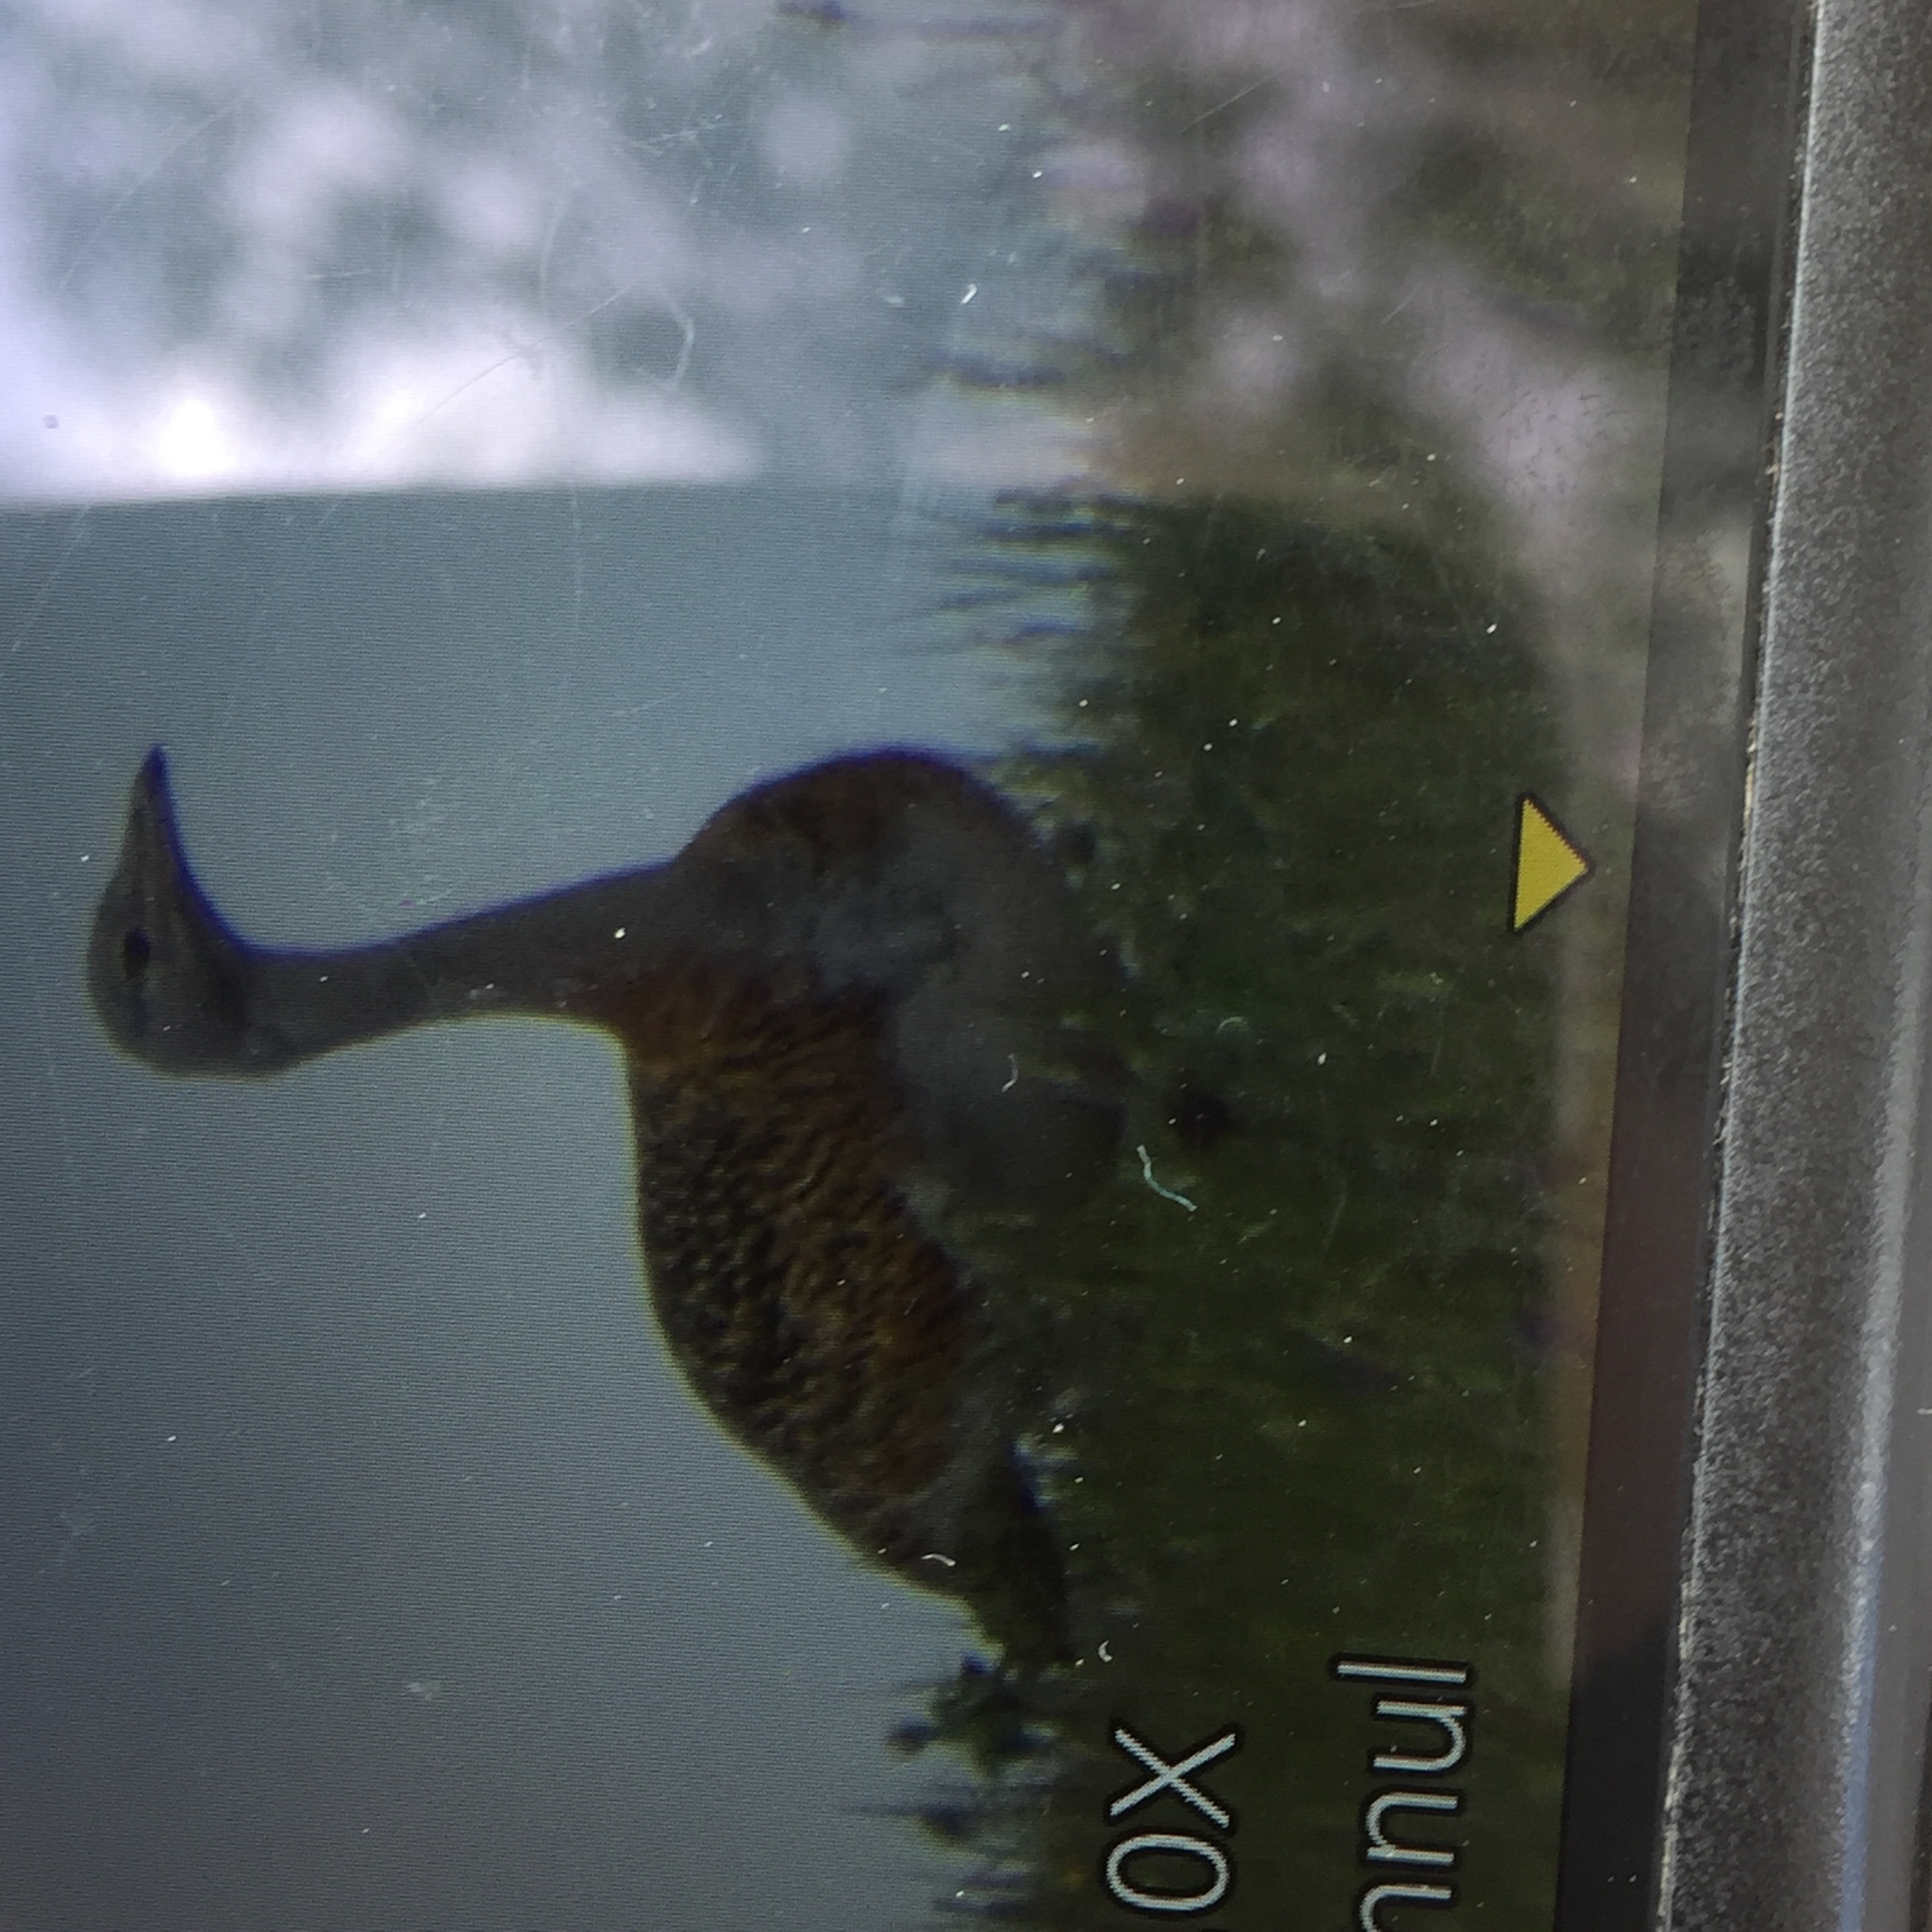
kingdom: Animalia
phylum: Chordata
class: Aves
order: Otidiformes
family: Otididae
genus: Otis
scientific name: Otis tarda
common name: Great bustard
